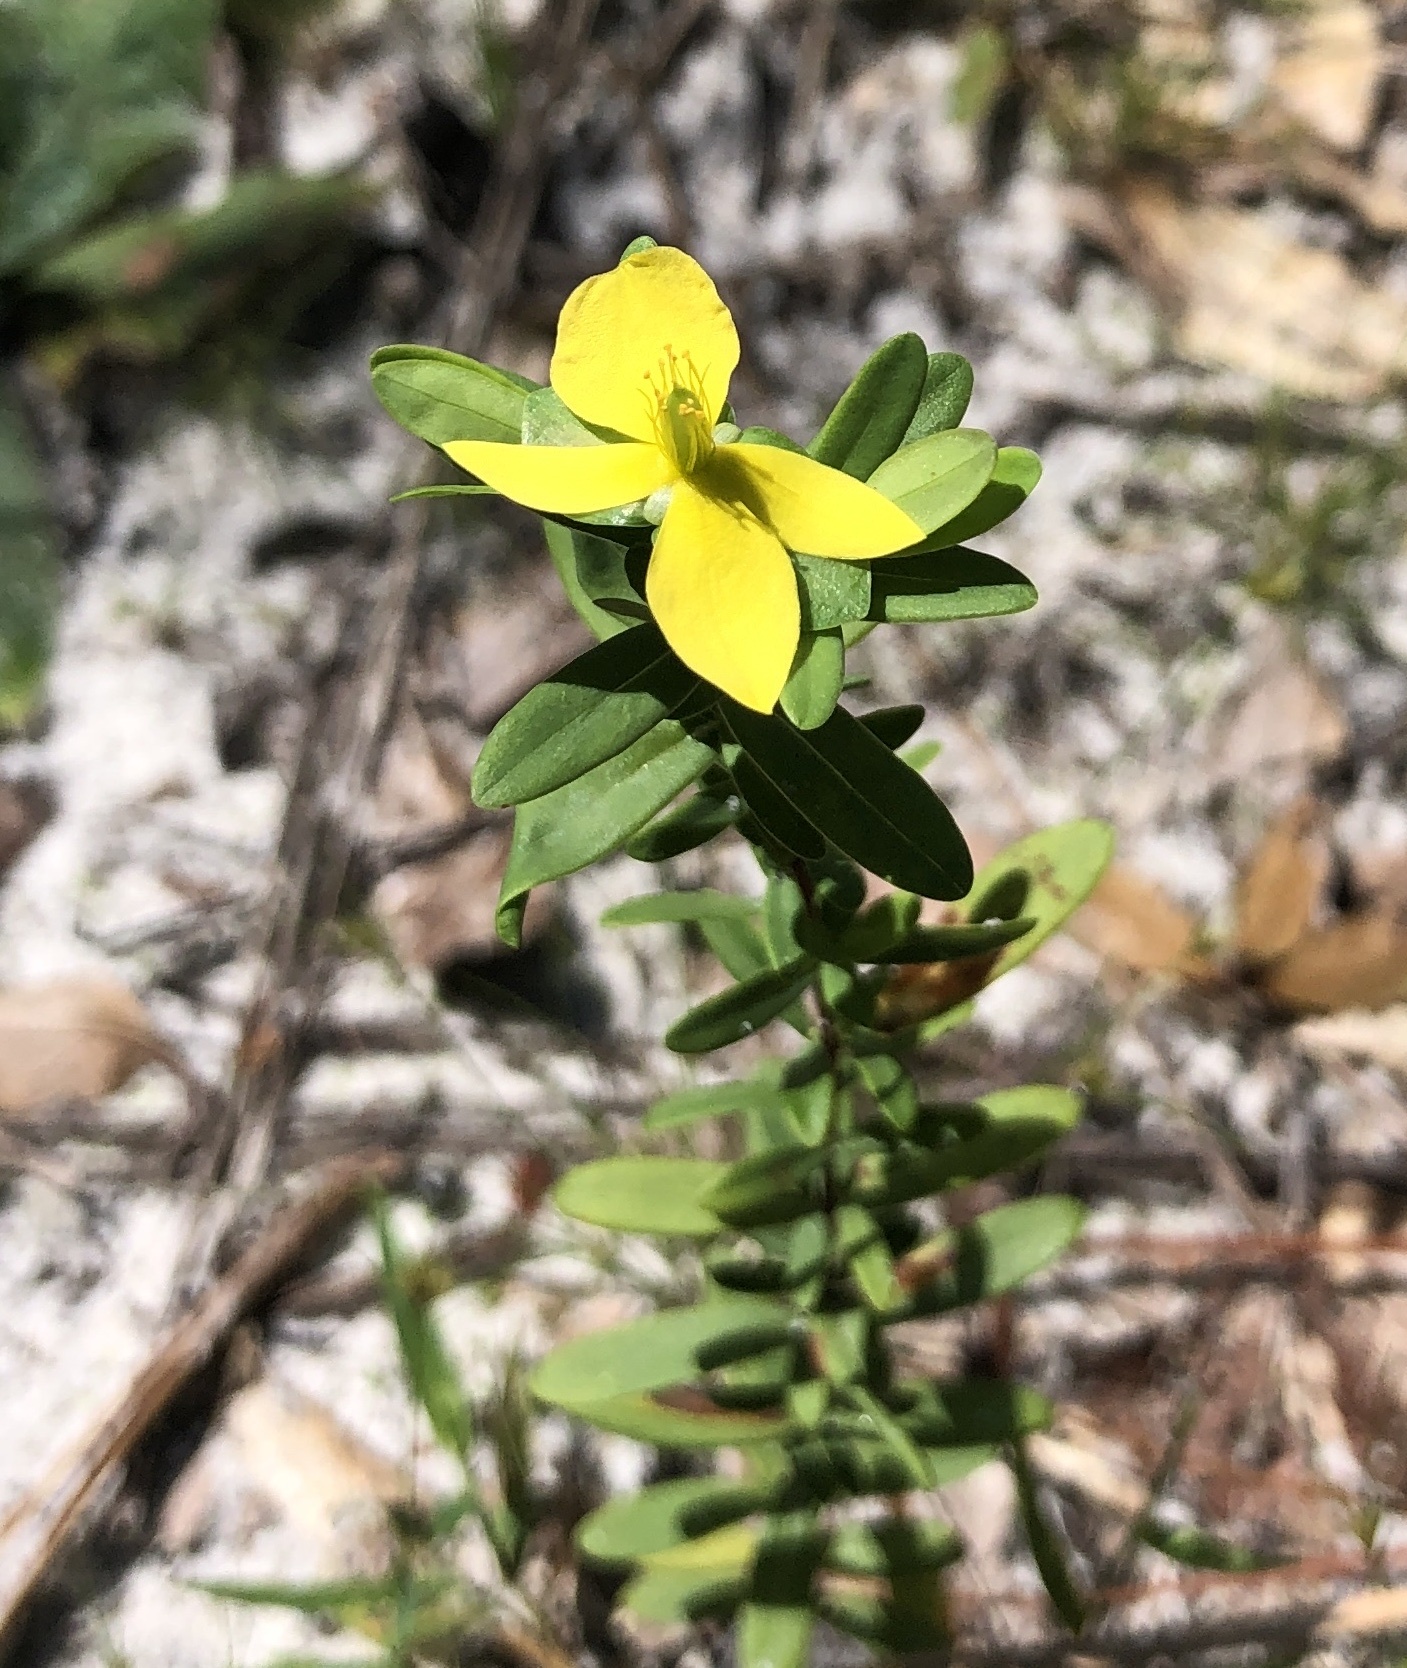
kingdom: Plantae
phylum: Tracheophyta
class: Magnoliopsida
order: Malpighiales
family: Hypericaceae
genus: Hypericum
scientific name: Hypericum hypericoides
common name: St. andrew's cross
